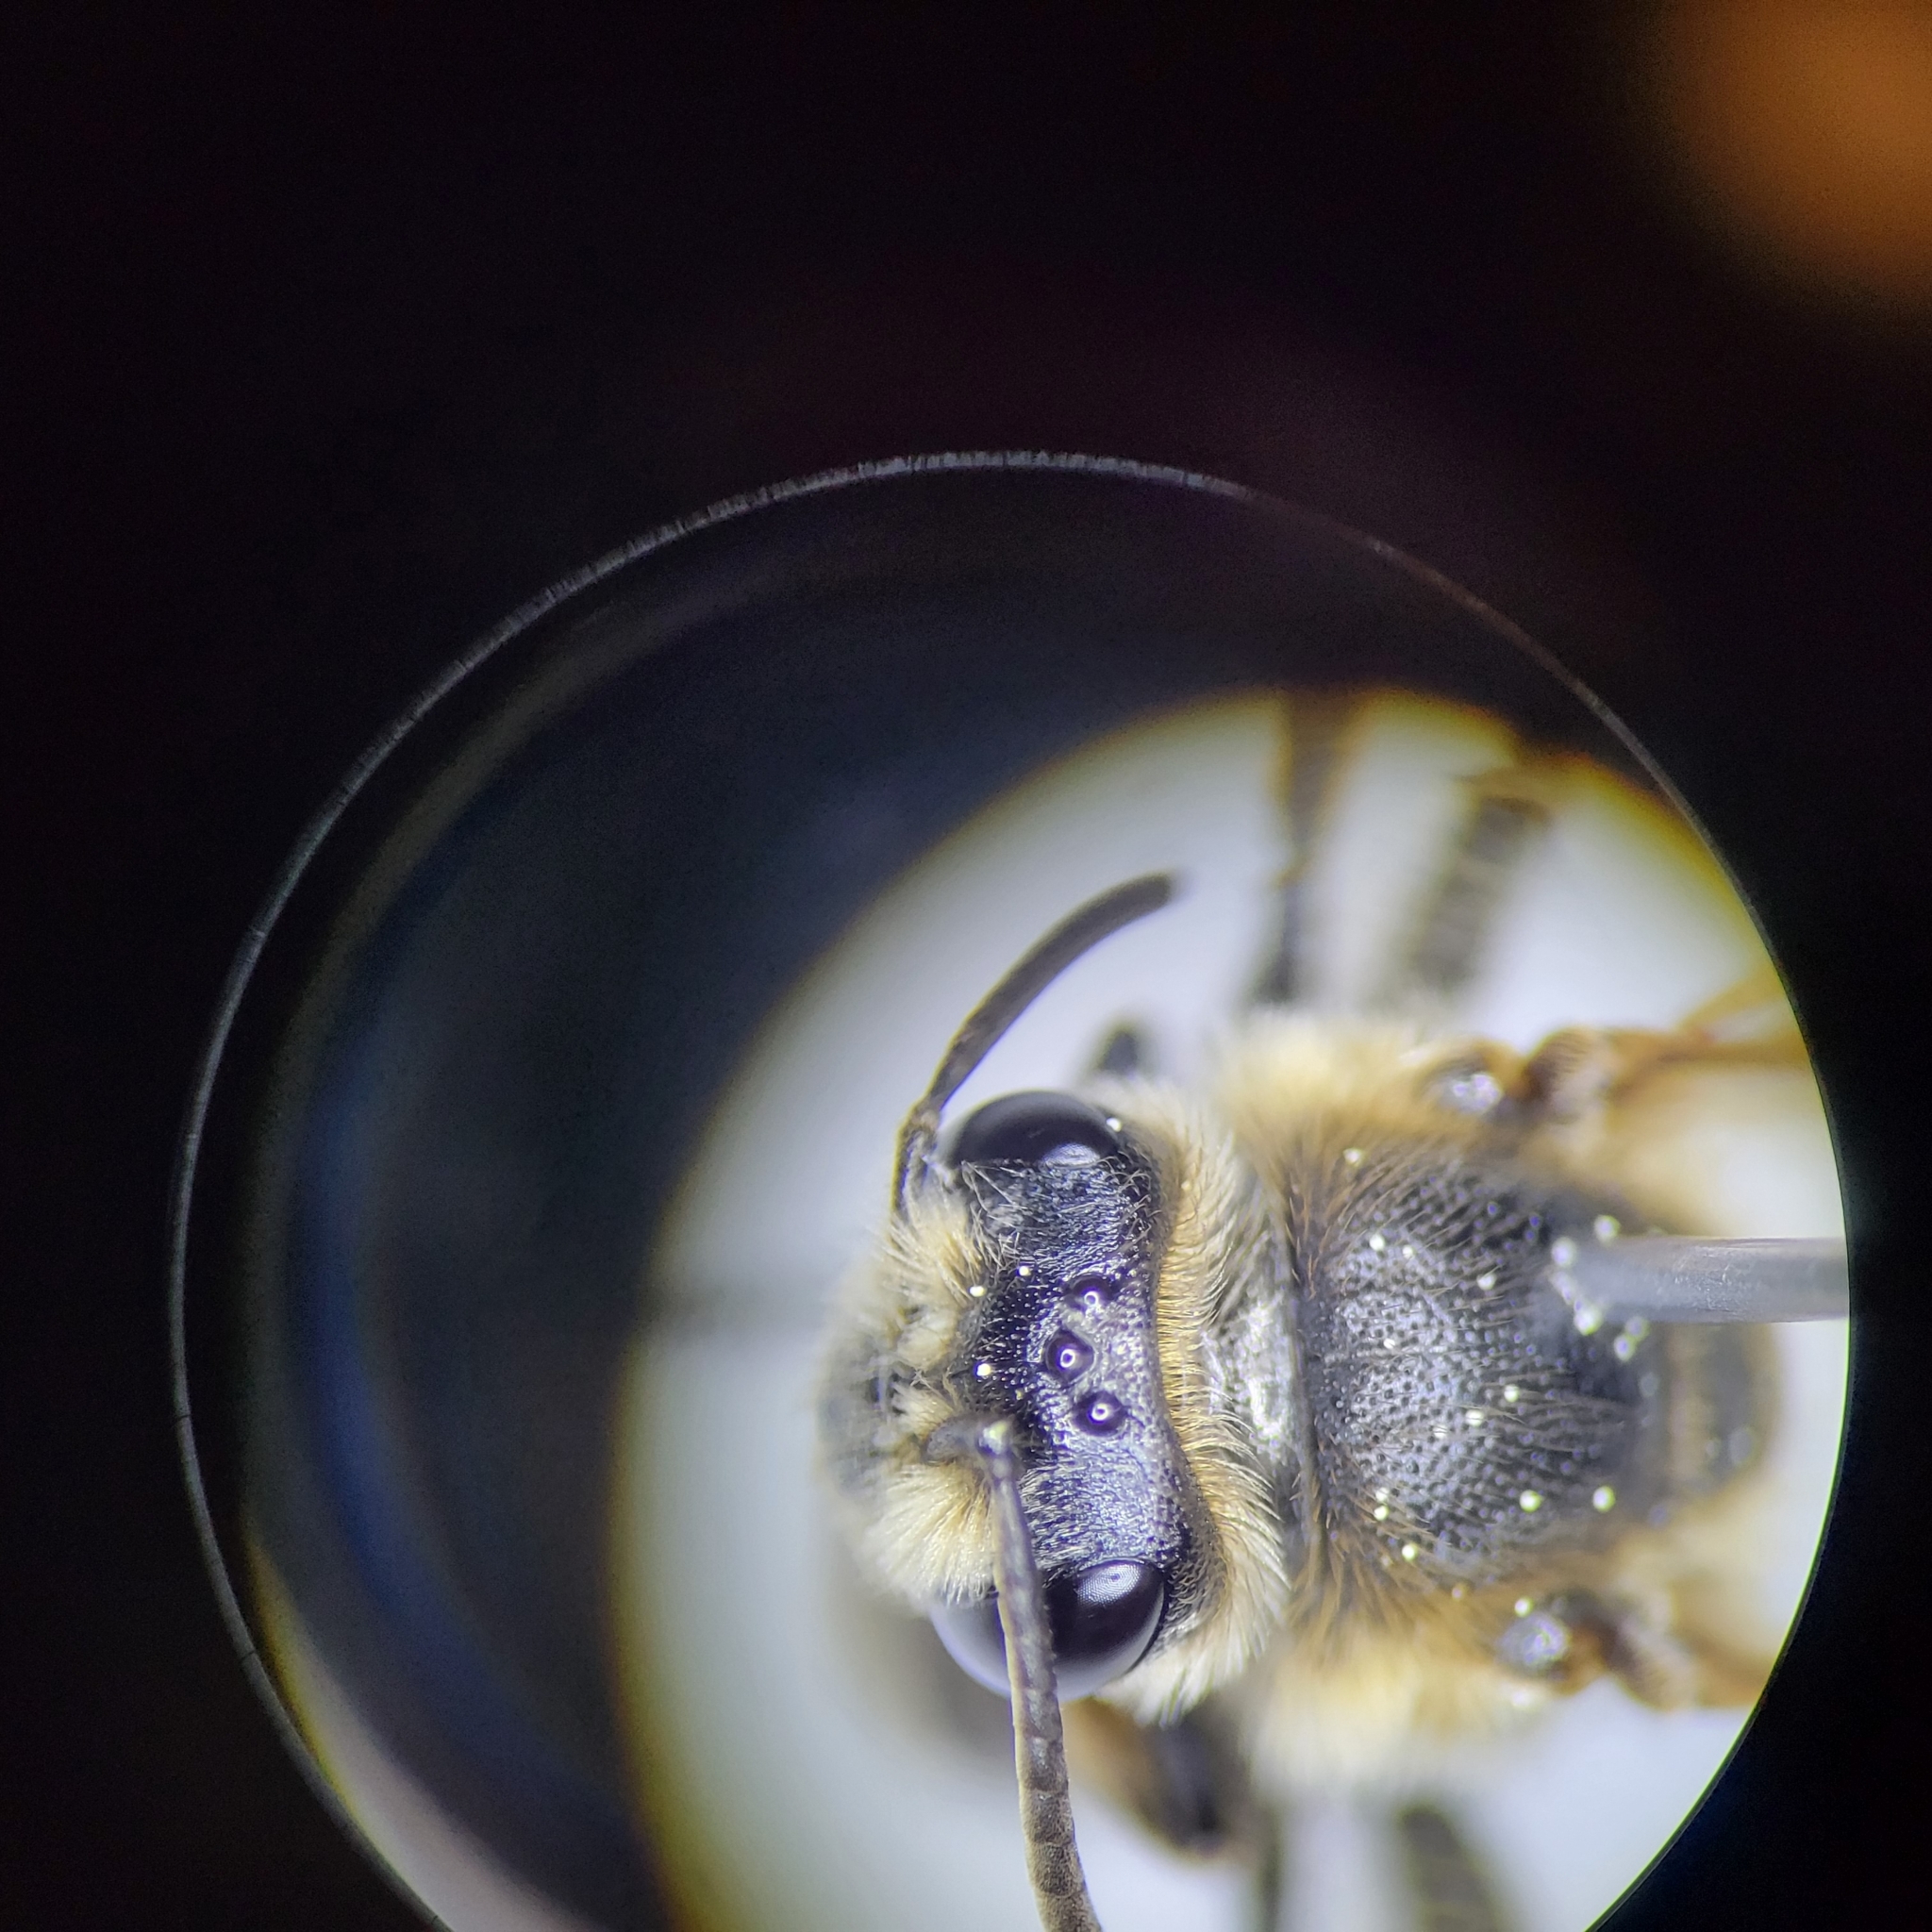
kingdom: Animalia
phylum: Arthropoda
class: Insecta
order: Hymenoptera
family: Andrenidae
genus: Andrena
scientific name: Andrena hippotes
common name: Hippotes's miner bee
